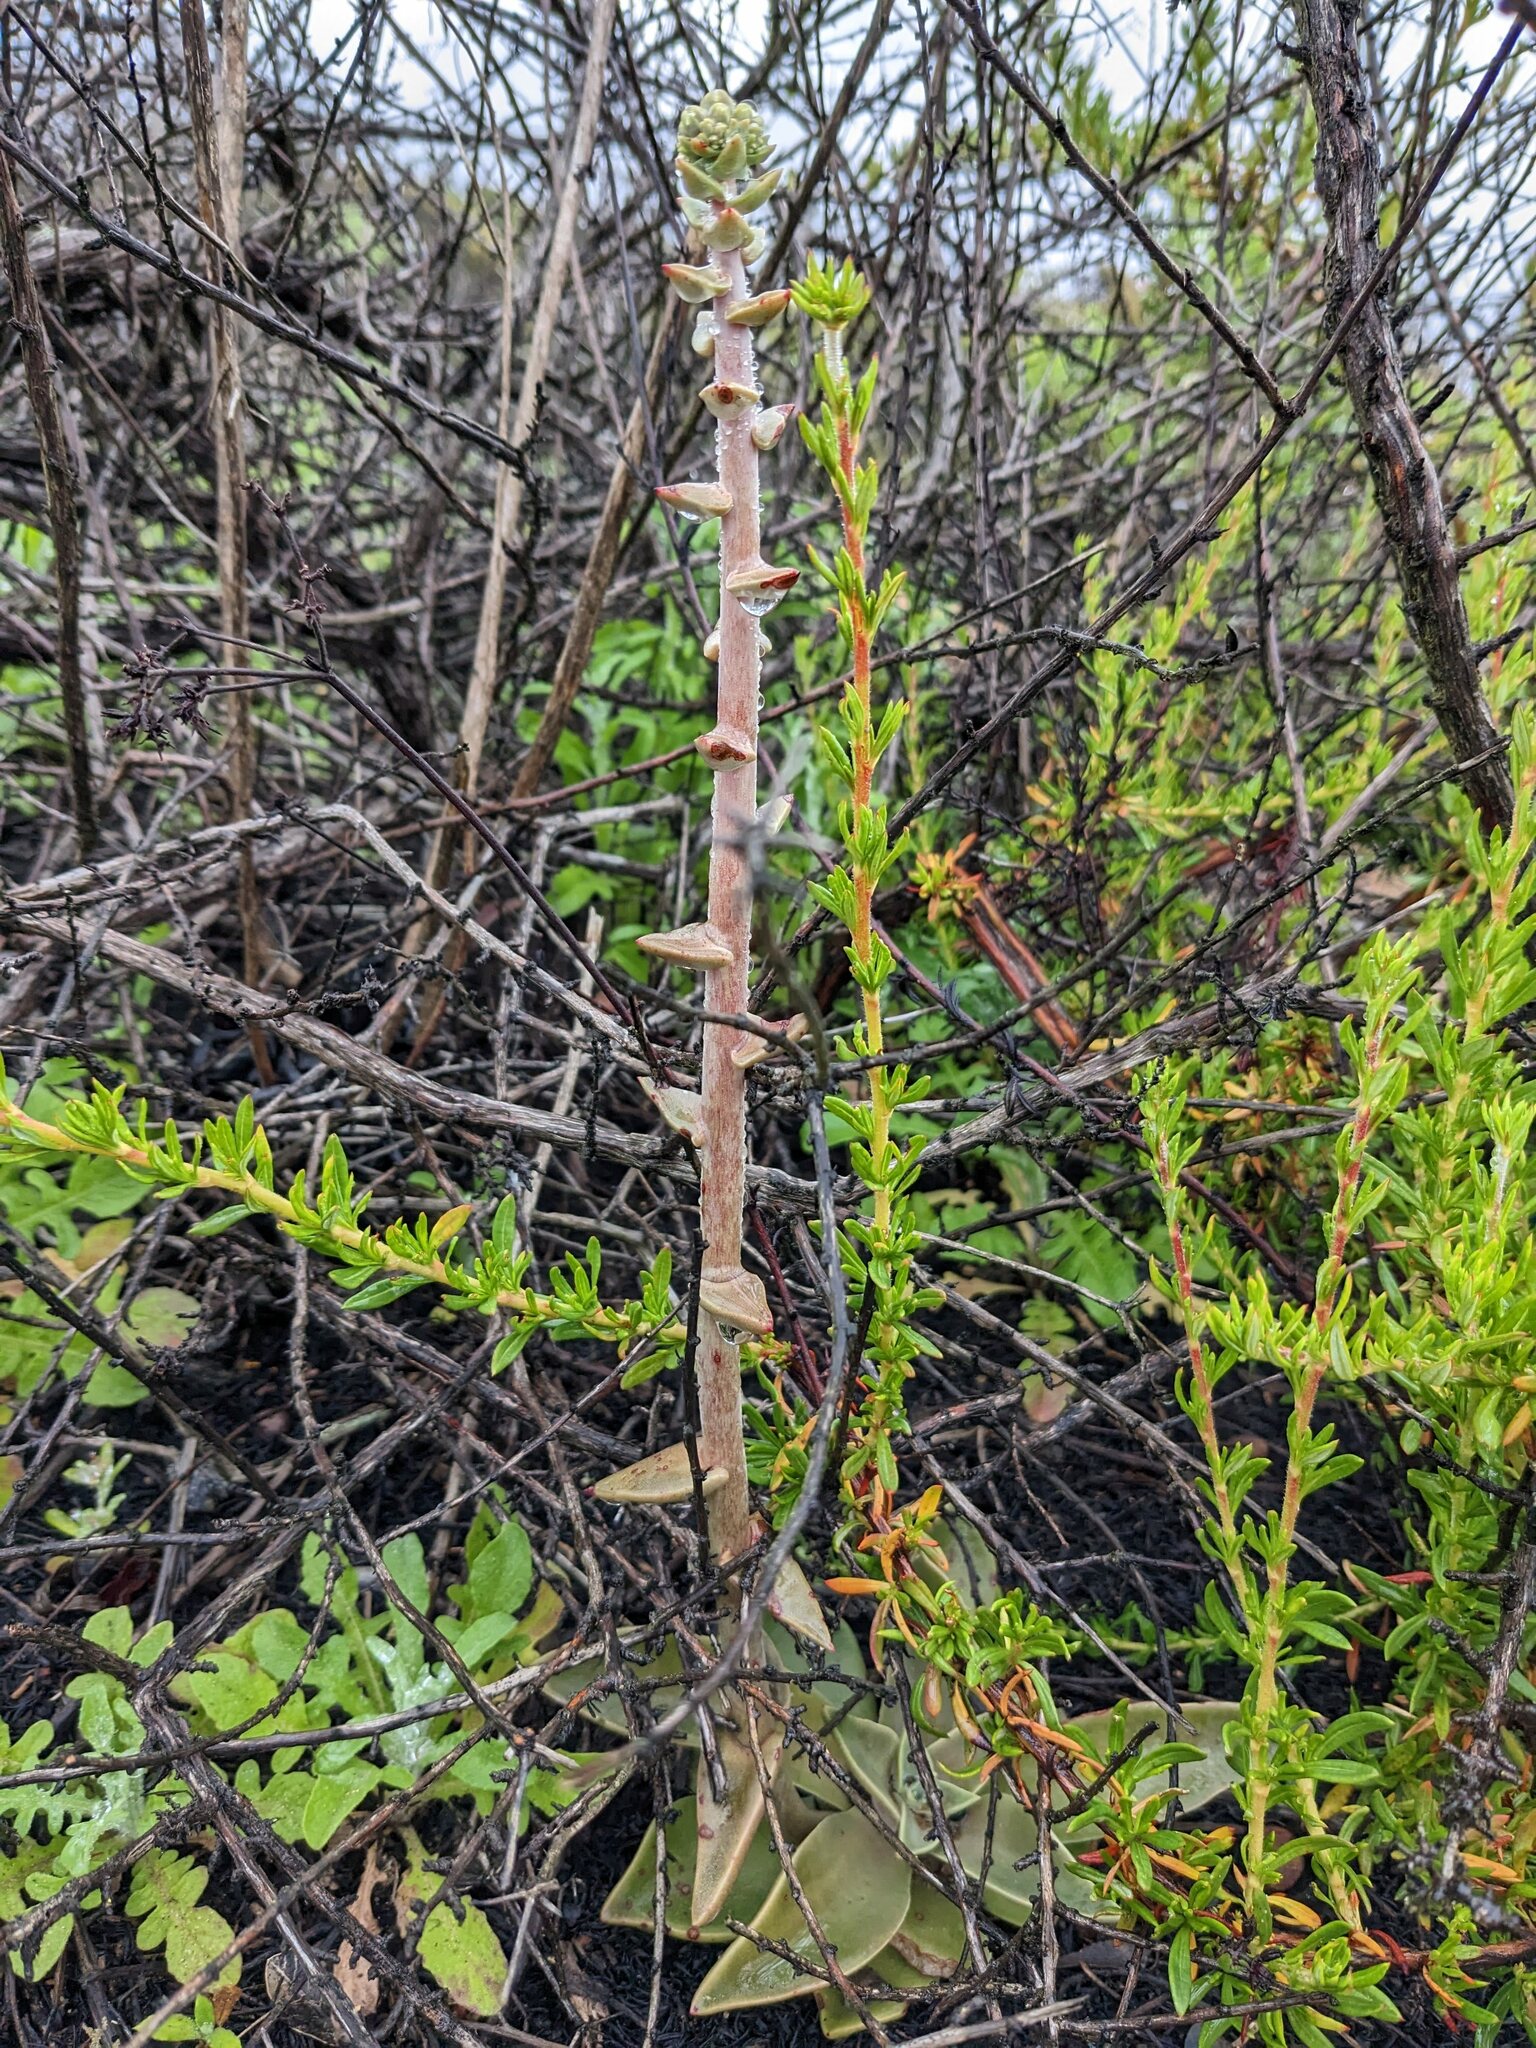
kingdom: Plantae
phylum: Tracheophyta
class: Magnoliopsida
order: Saxifragales
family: Crassulaceae
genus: Dudleya
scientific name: Dudleya lanceolata
